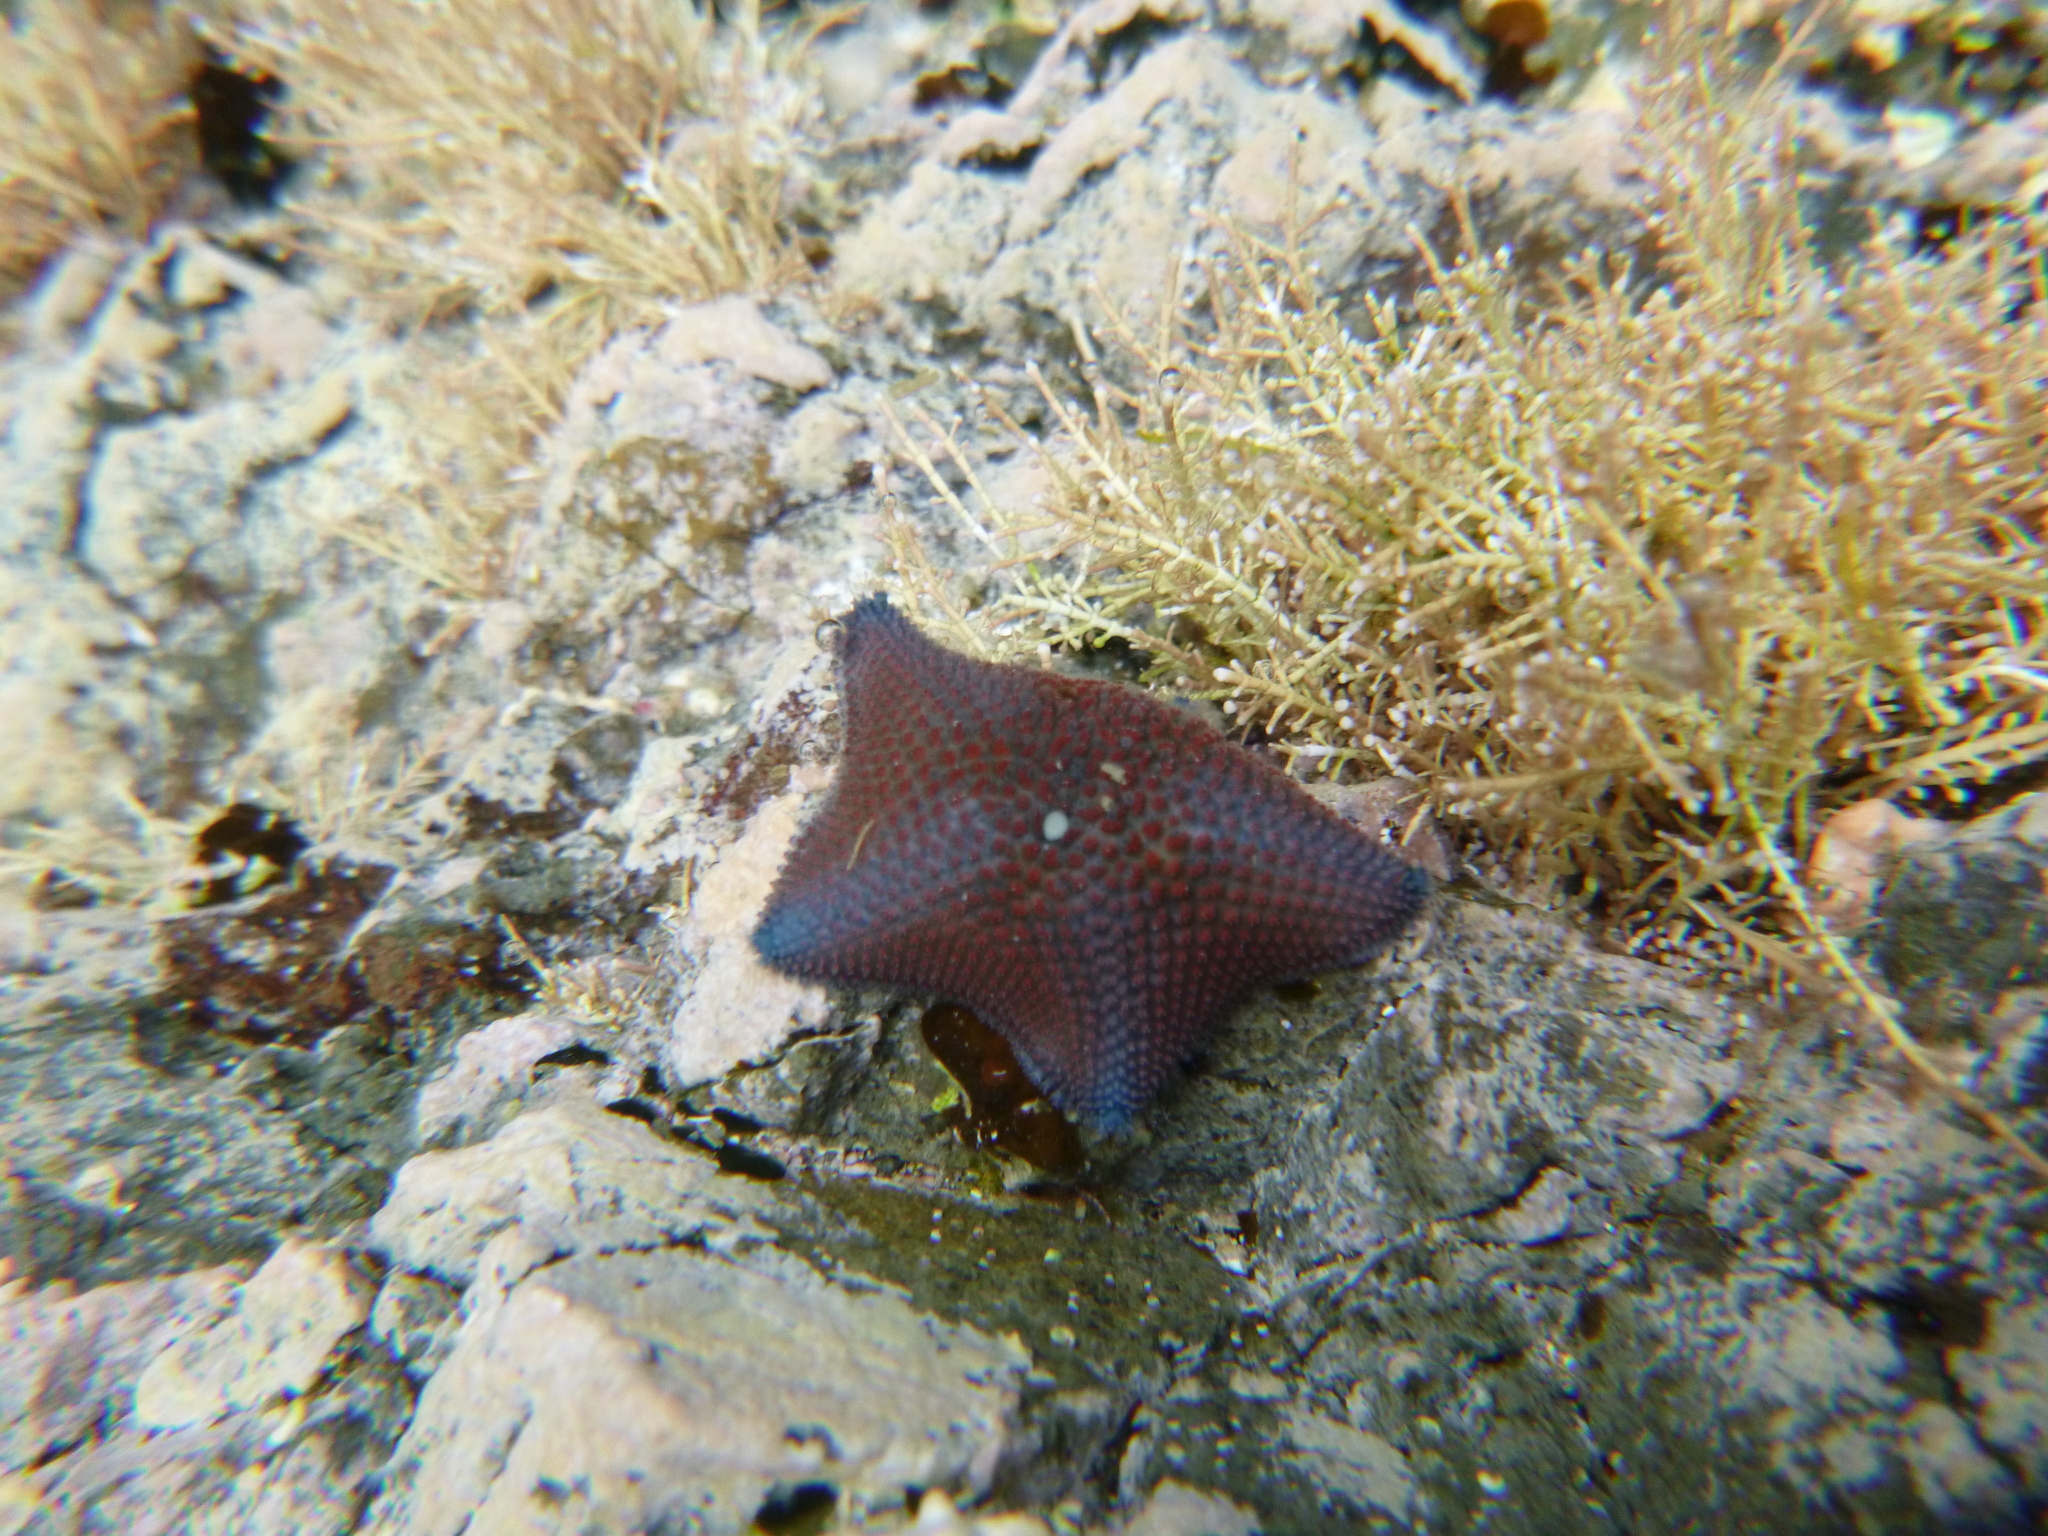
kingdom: Animalia
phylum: Echinodermata
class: Asteroidea
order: Valvatida
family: Asterinidae
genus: Patiriella
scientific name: Patiriella regularis
